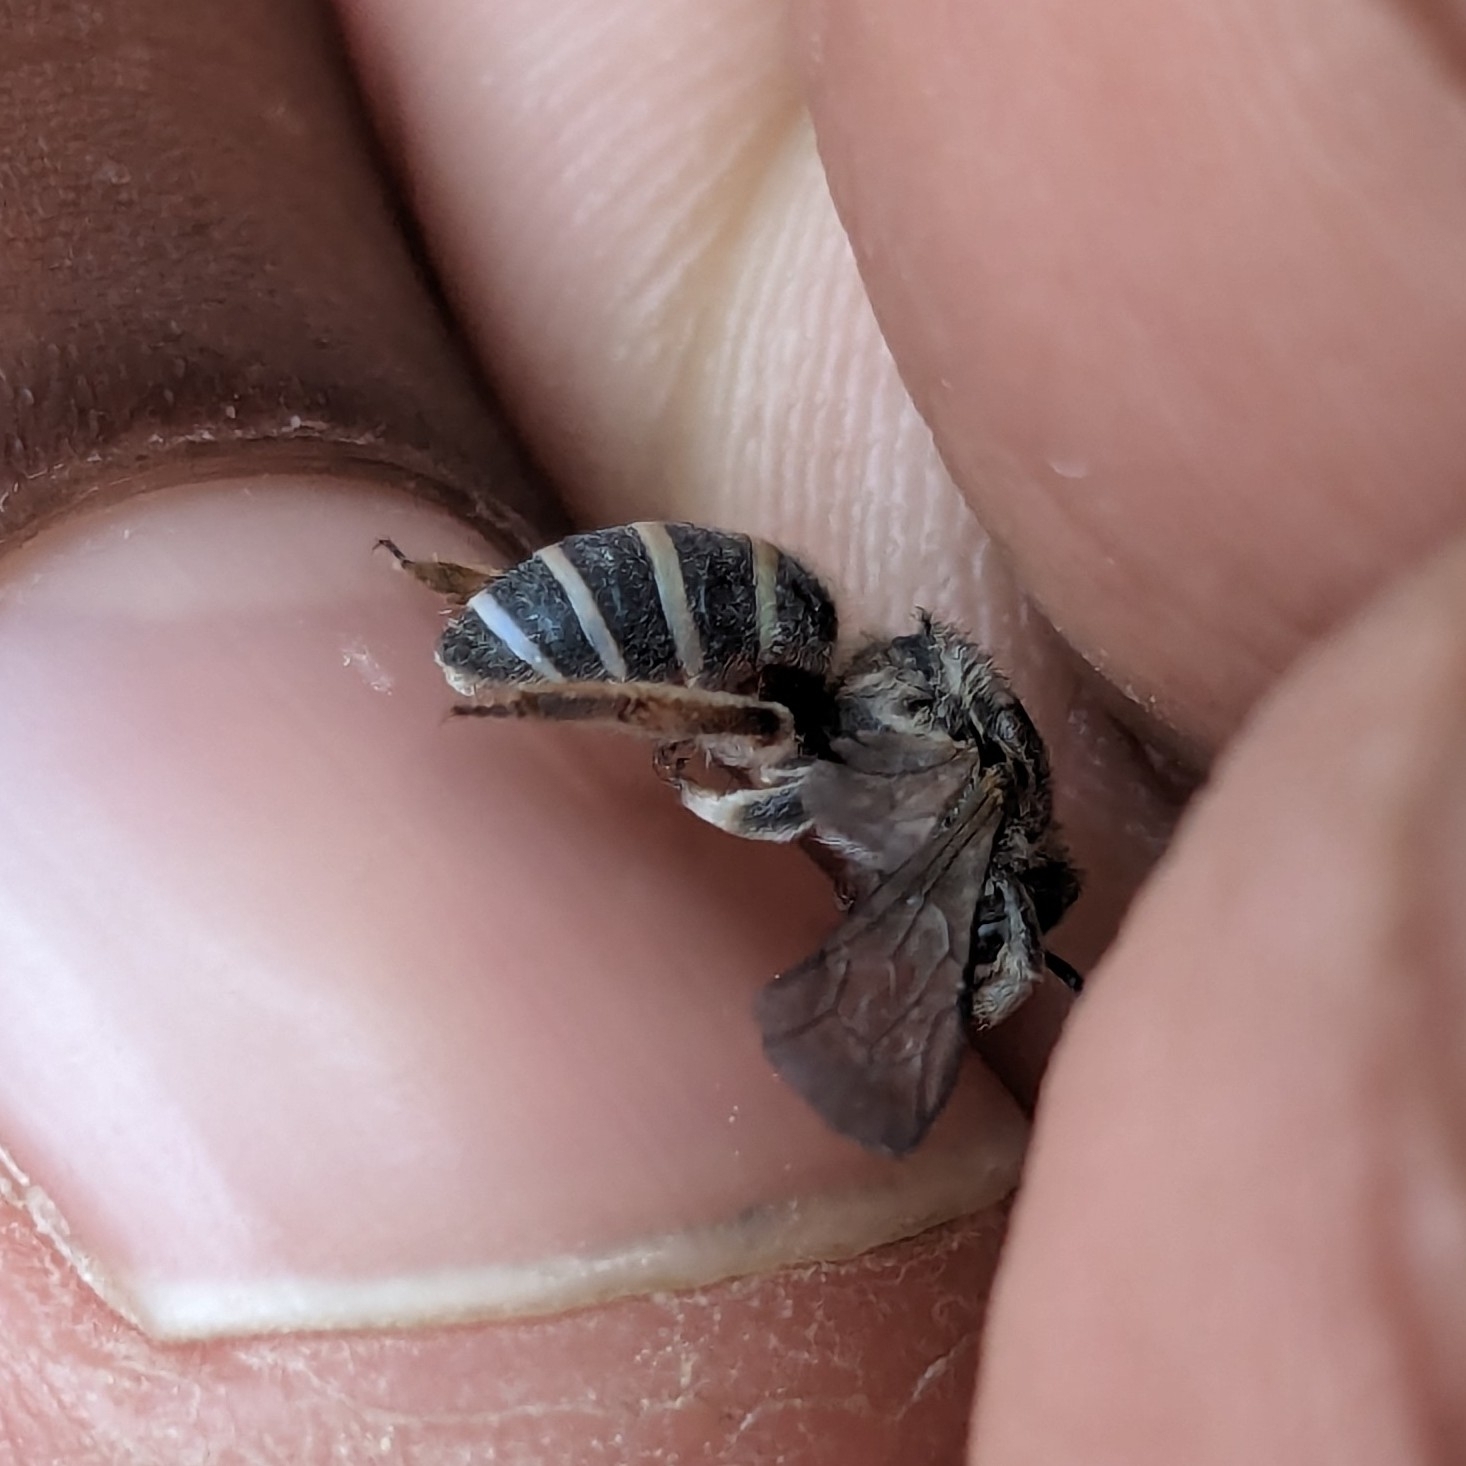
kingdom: Animalia
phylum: Arthropoda
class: Insecta
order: Hymenoptera
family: Halictidae
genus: Nomia
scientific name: Nomia westwoodi
